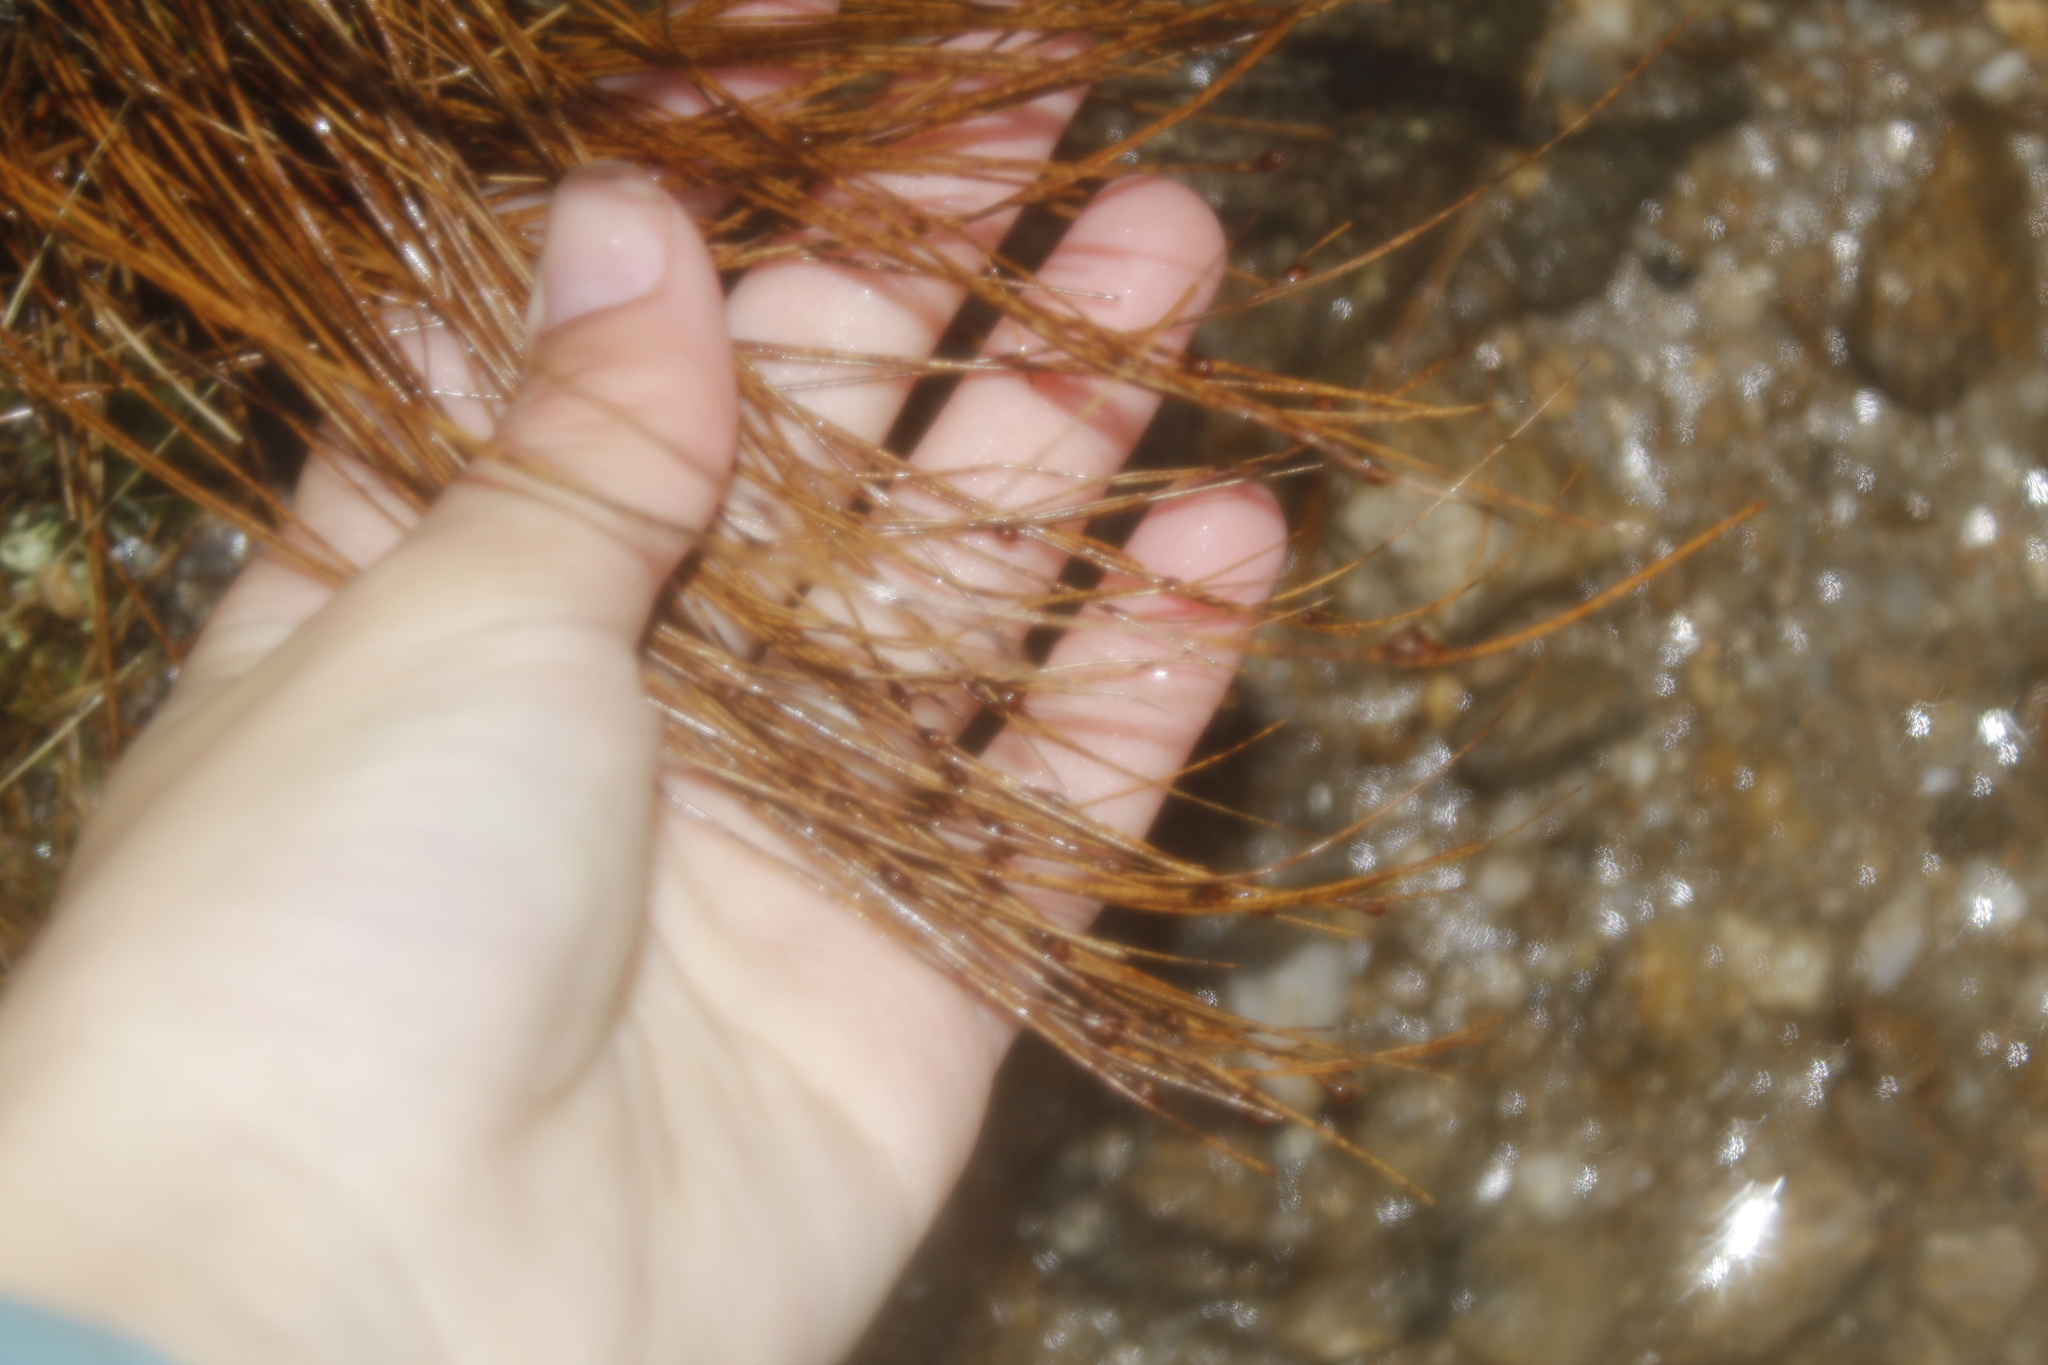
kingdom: Plantae
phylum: Tracheophyta
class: Liliopsida
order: Poales
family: Juncaceae
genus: Oreojuncus
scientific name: Oreojuncus trifidus
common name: Highland rush
